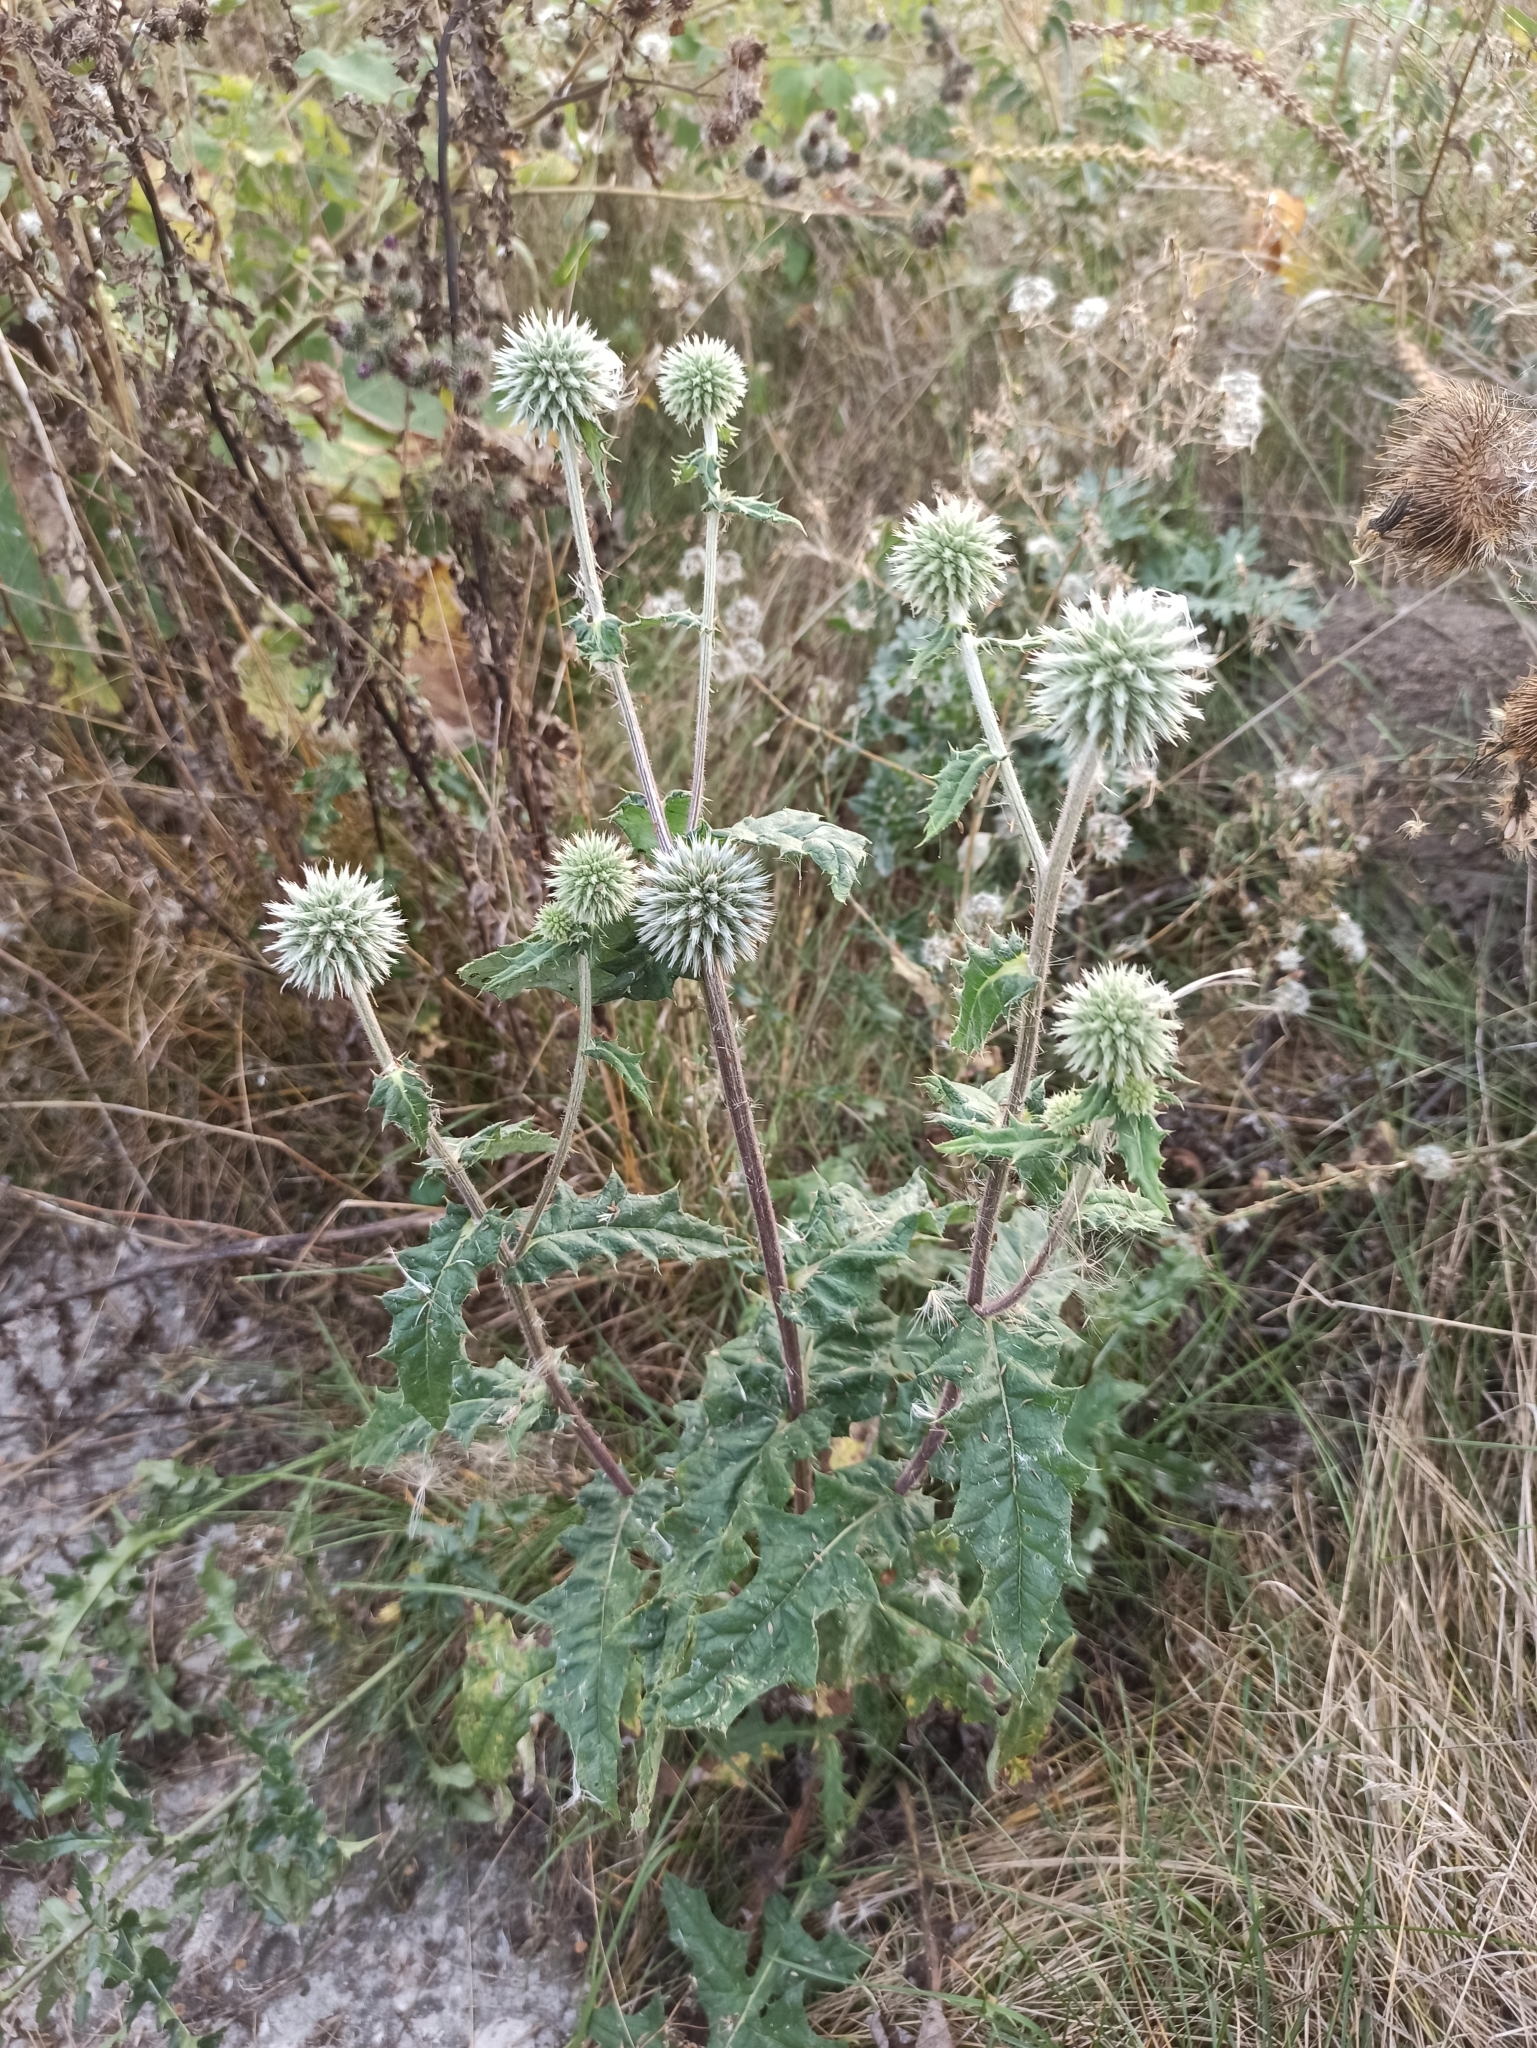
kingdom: Plantae
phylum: Tracheophyta
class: Magnoliopsida
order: Asterales
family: Asteraceae
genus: Echinops
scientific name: Echinops sphaerocephalus
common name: Glandular globe-thistle
